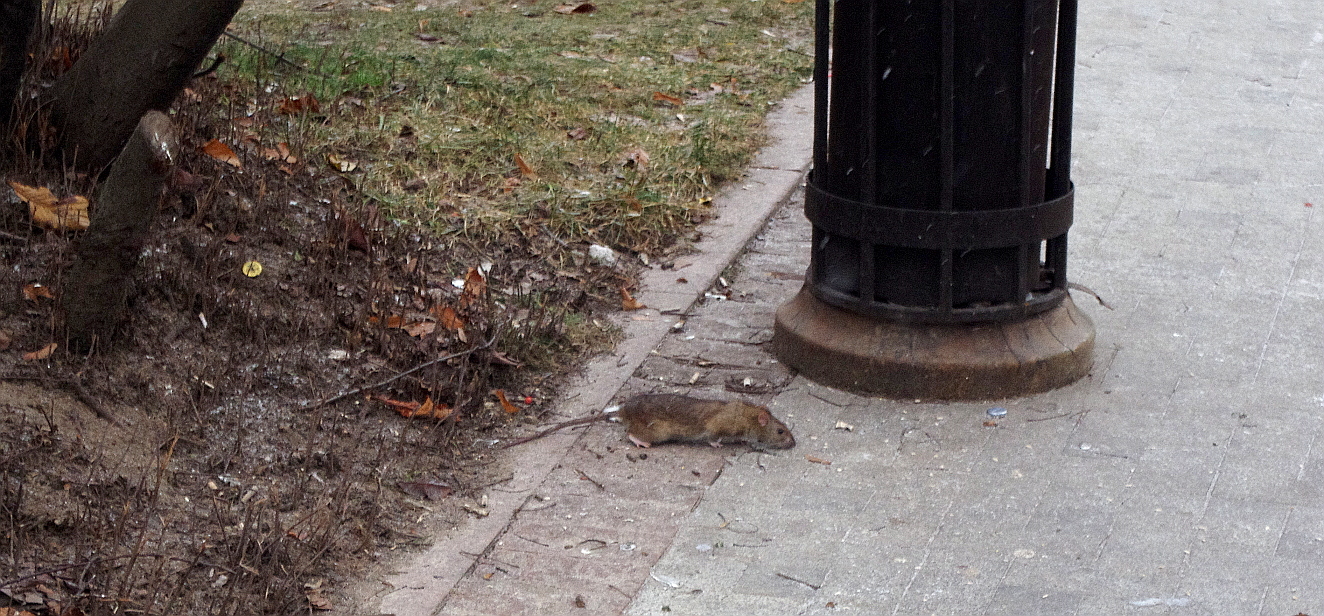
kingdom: Animalia
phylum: Chordata
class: Mammalia
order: Rodentia
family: Muridae
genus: Rattus
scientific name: Rattus norvegicus
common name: Brown rat
